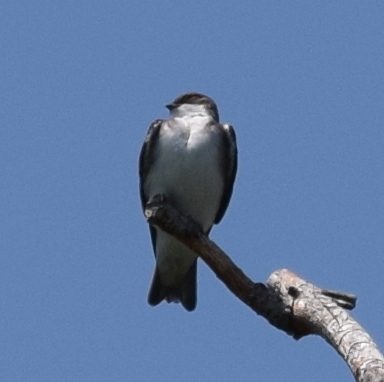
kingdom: Animalia
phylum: Chordata
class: Aves
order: Passeriformes
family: Hirundinidae
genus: Tachycineta
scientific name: Tachycineta bicolor
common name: Tree swallow
